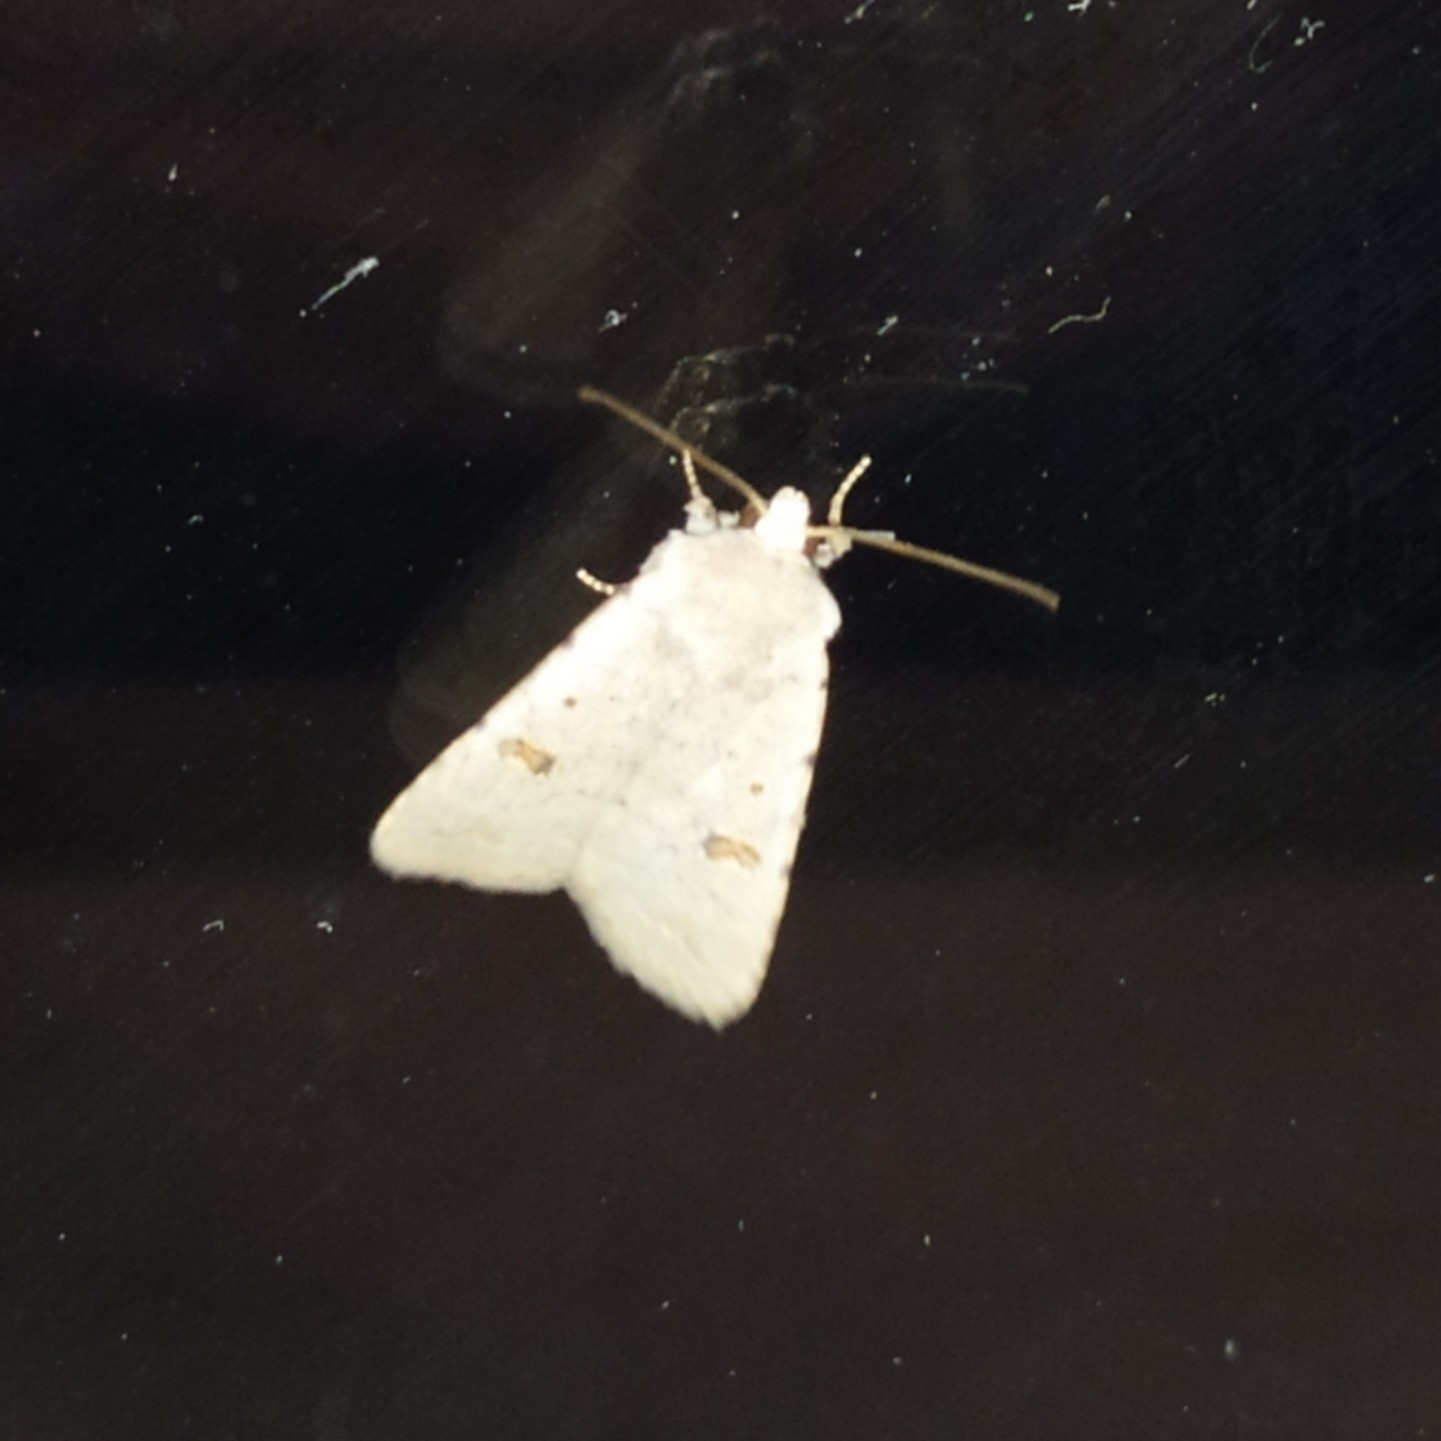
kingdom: Animalia
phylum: Arthropoda
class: Insecta
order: Lepidoptera
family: Noctuidae
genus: Caradrina
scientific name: Caradrina kadenii
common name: Clancy's rustic
